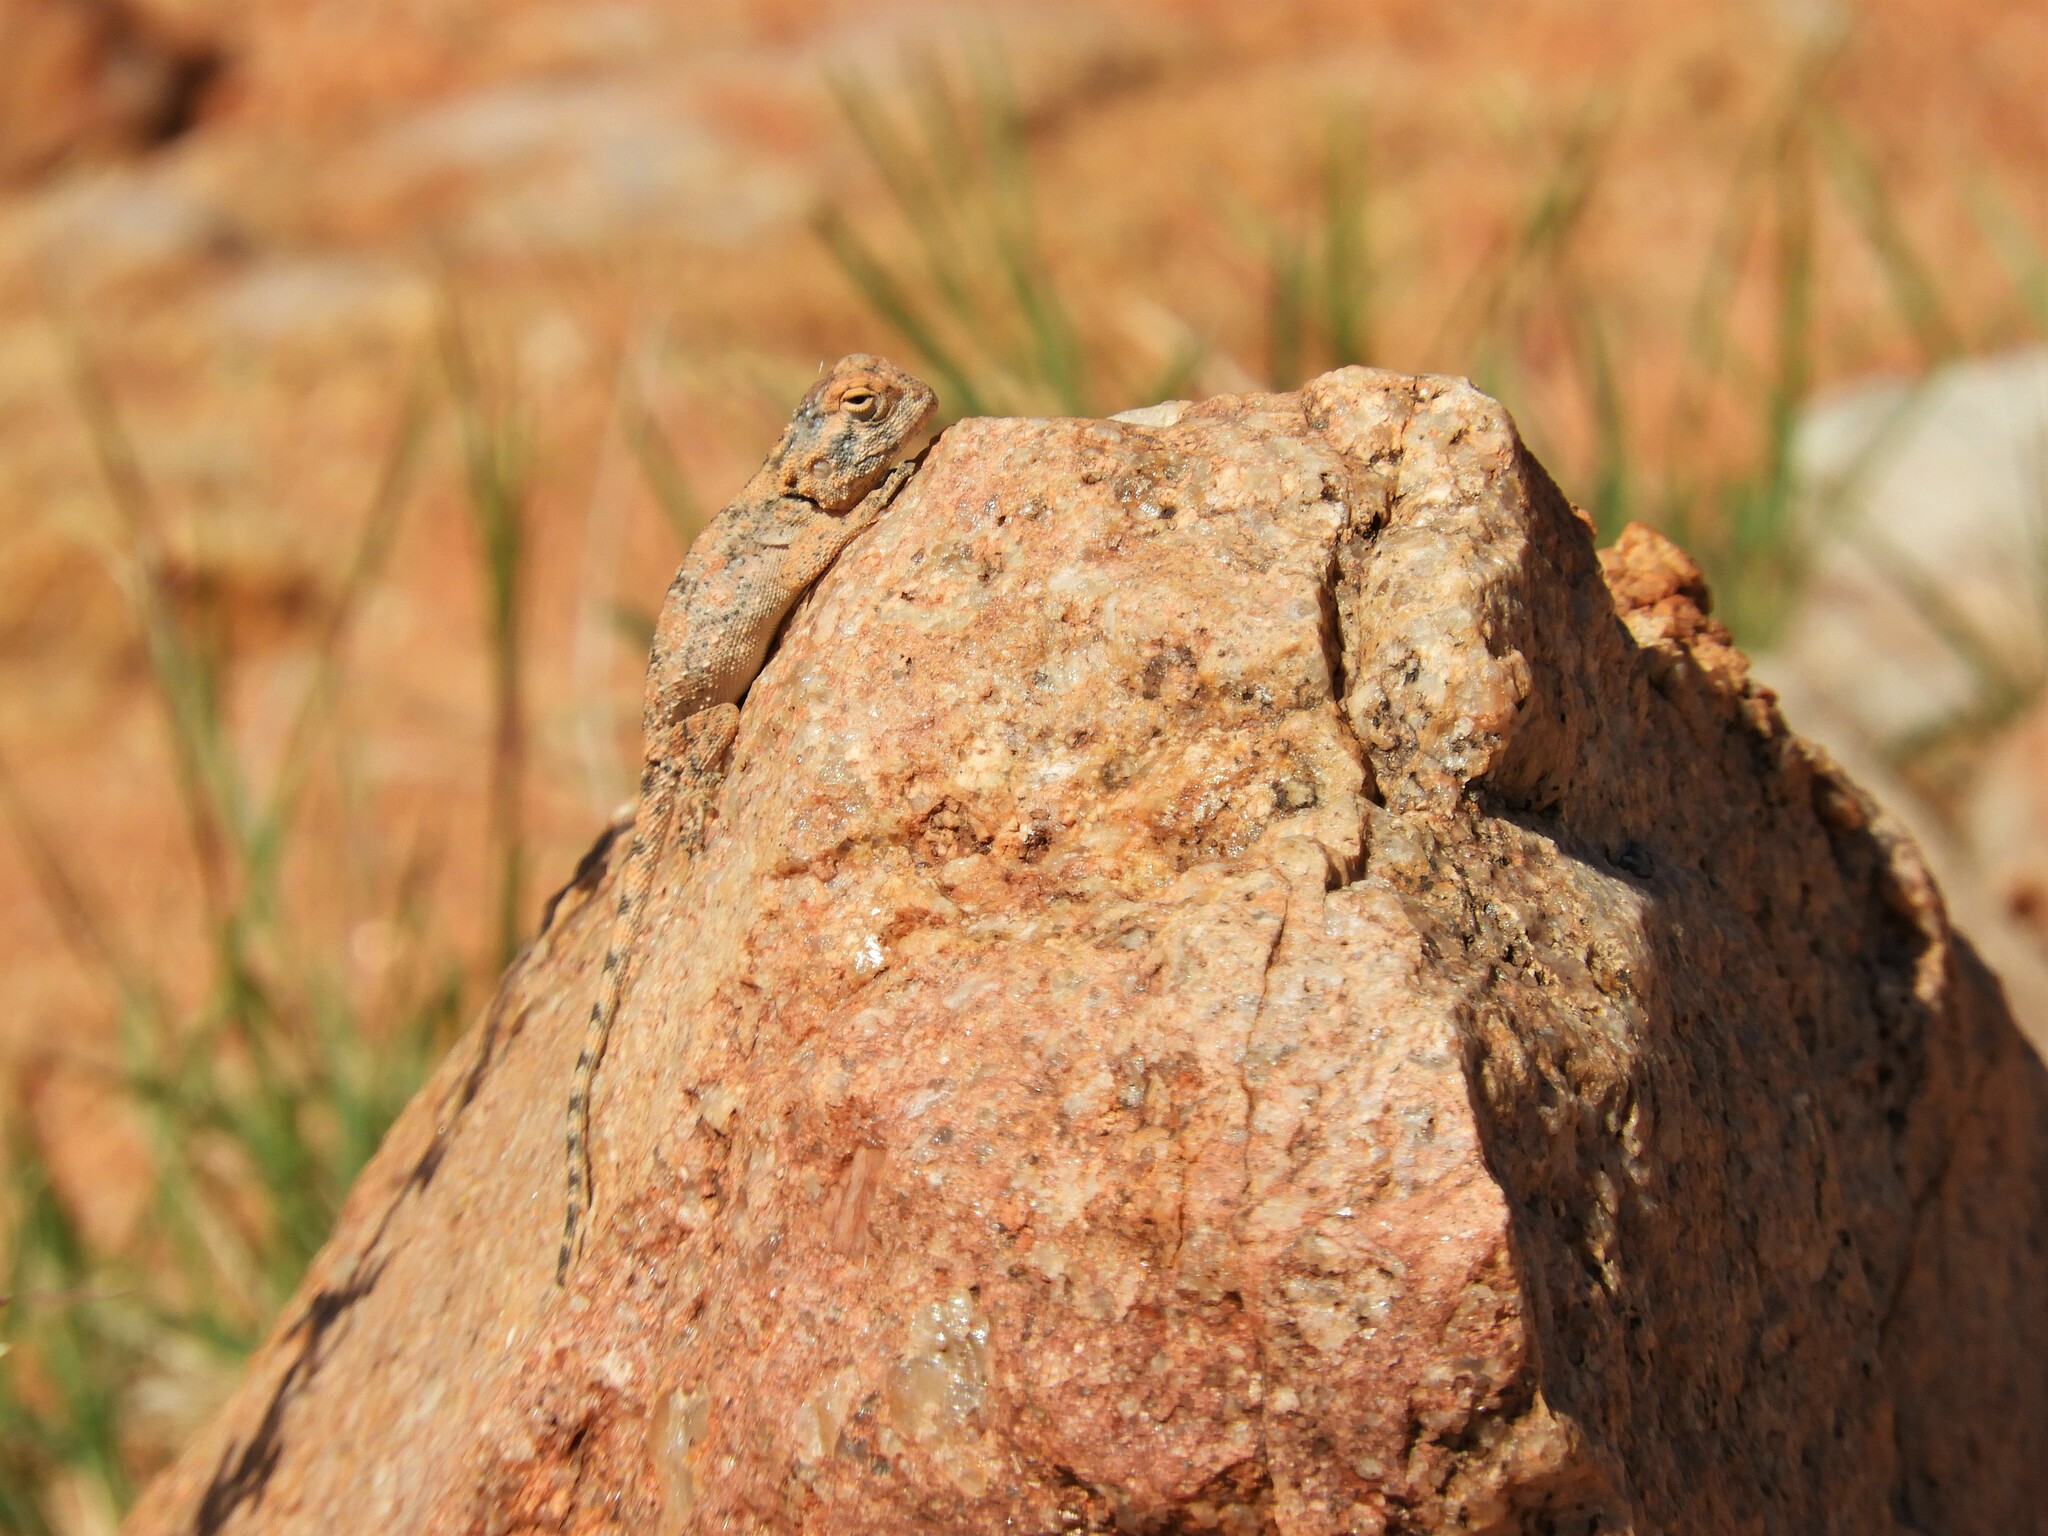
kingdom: Animalia
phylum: Chordata
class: Squamata
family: Agamidae
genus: Agama
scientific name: Agama anchietae
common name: Anchieta's agama
